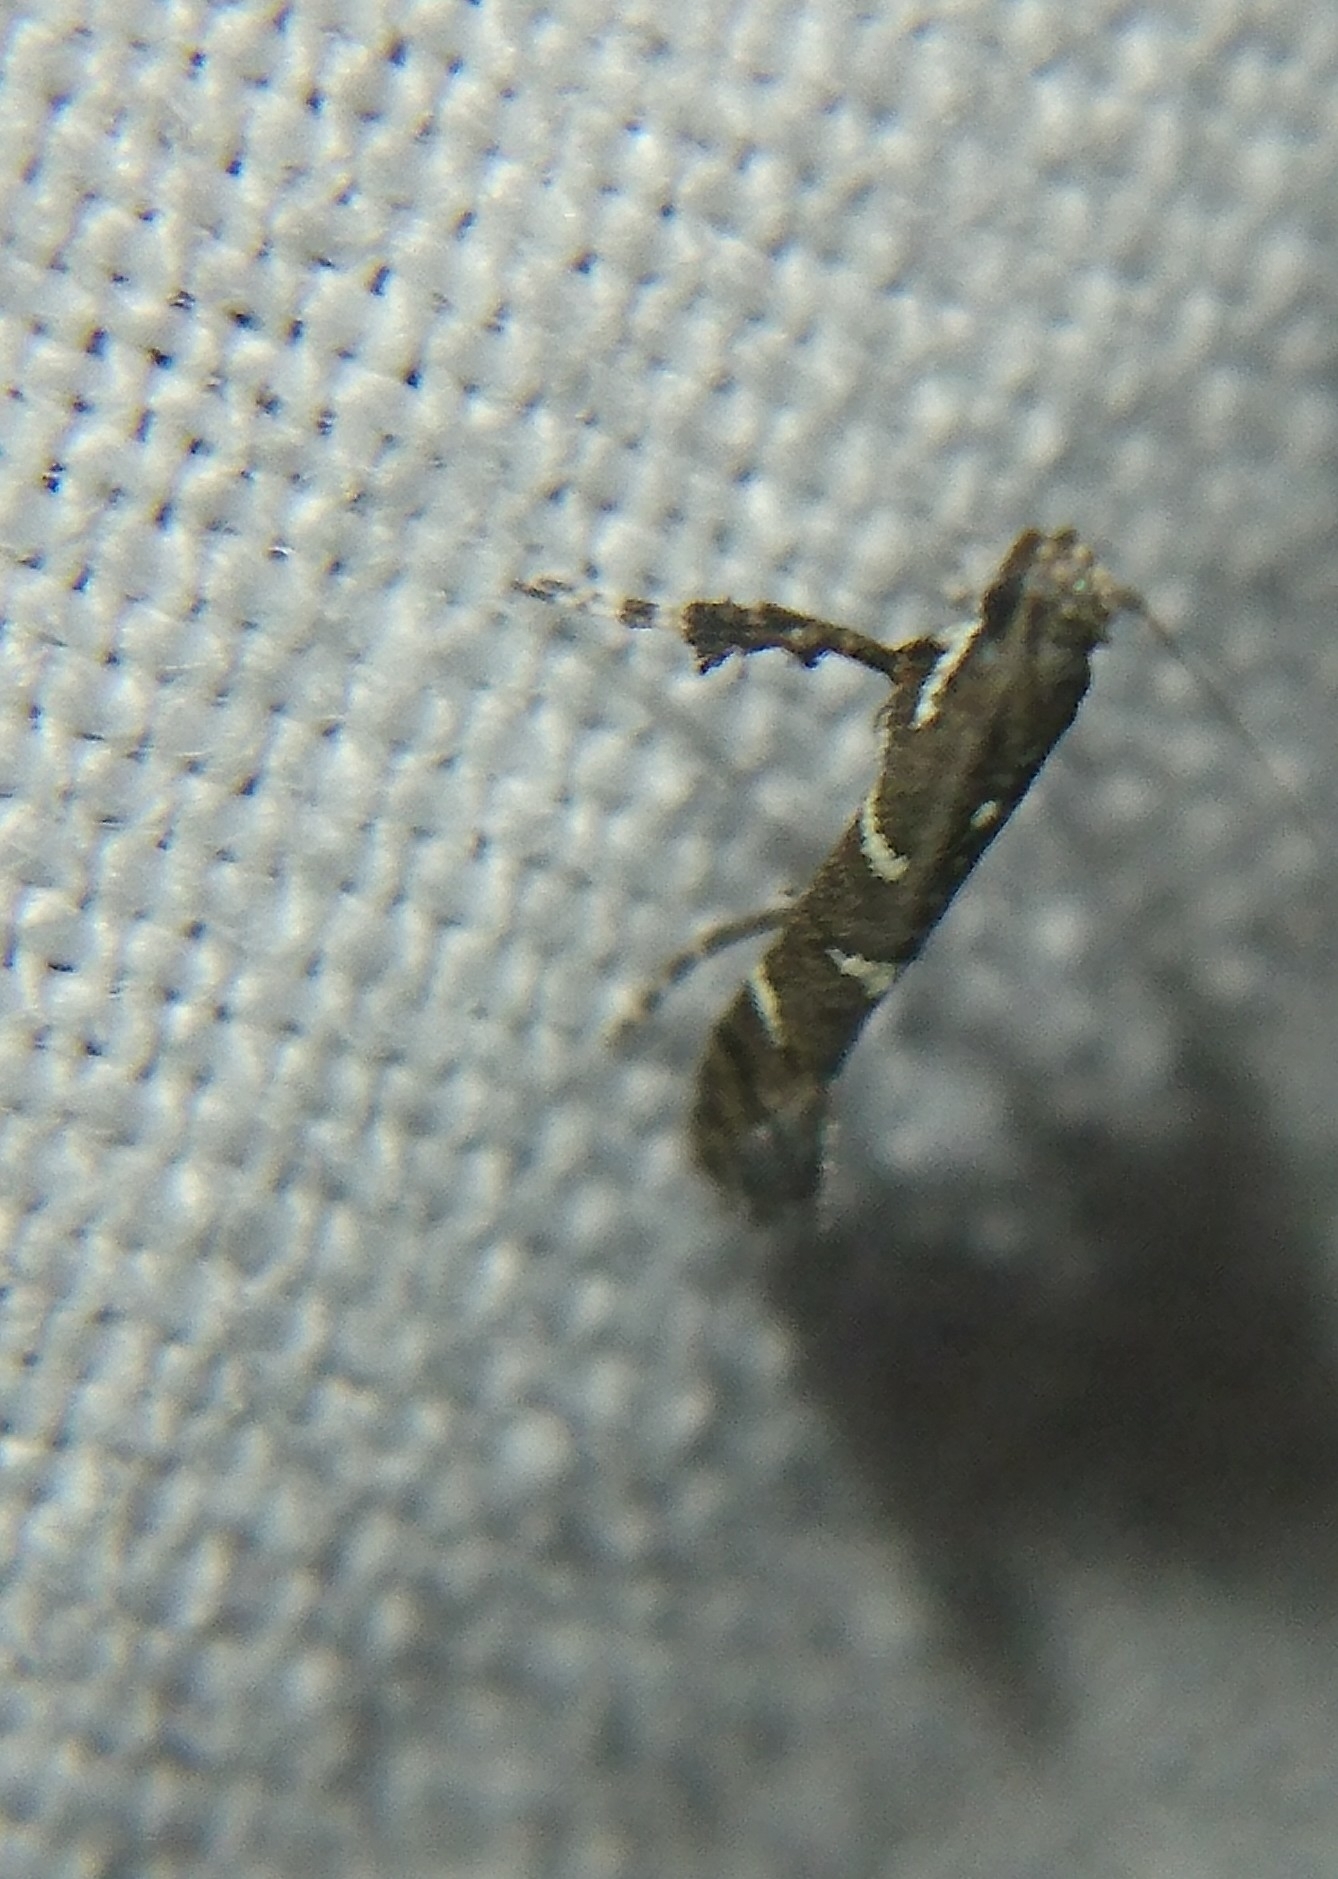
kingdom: Animalia
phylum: Arthropoda
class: Insecta
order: Lepidoptera
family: Gracillariidae
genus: Caloptilia
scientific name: Caloptilia triadicae
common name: Tallow leaf roller
